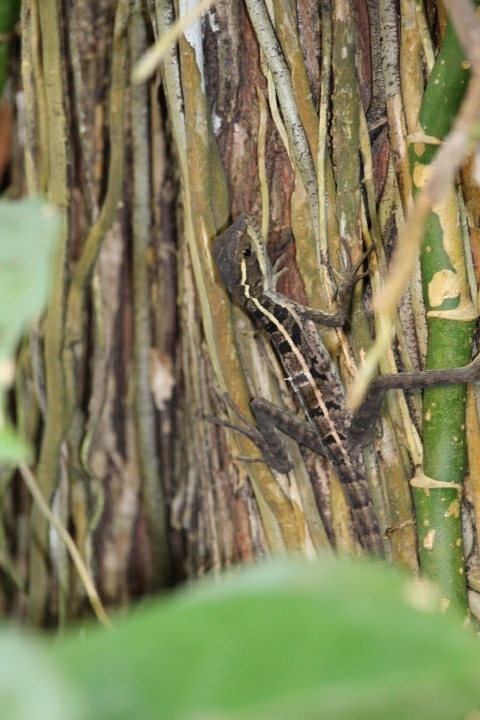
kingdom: Animalia
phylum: Chordata
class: Squamata
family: Corytophanidae
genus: Basiliscus
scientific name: Basiliscus vittatus
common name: Brown basilisk
